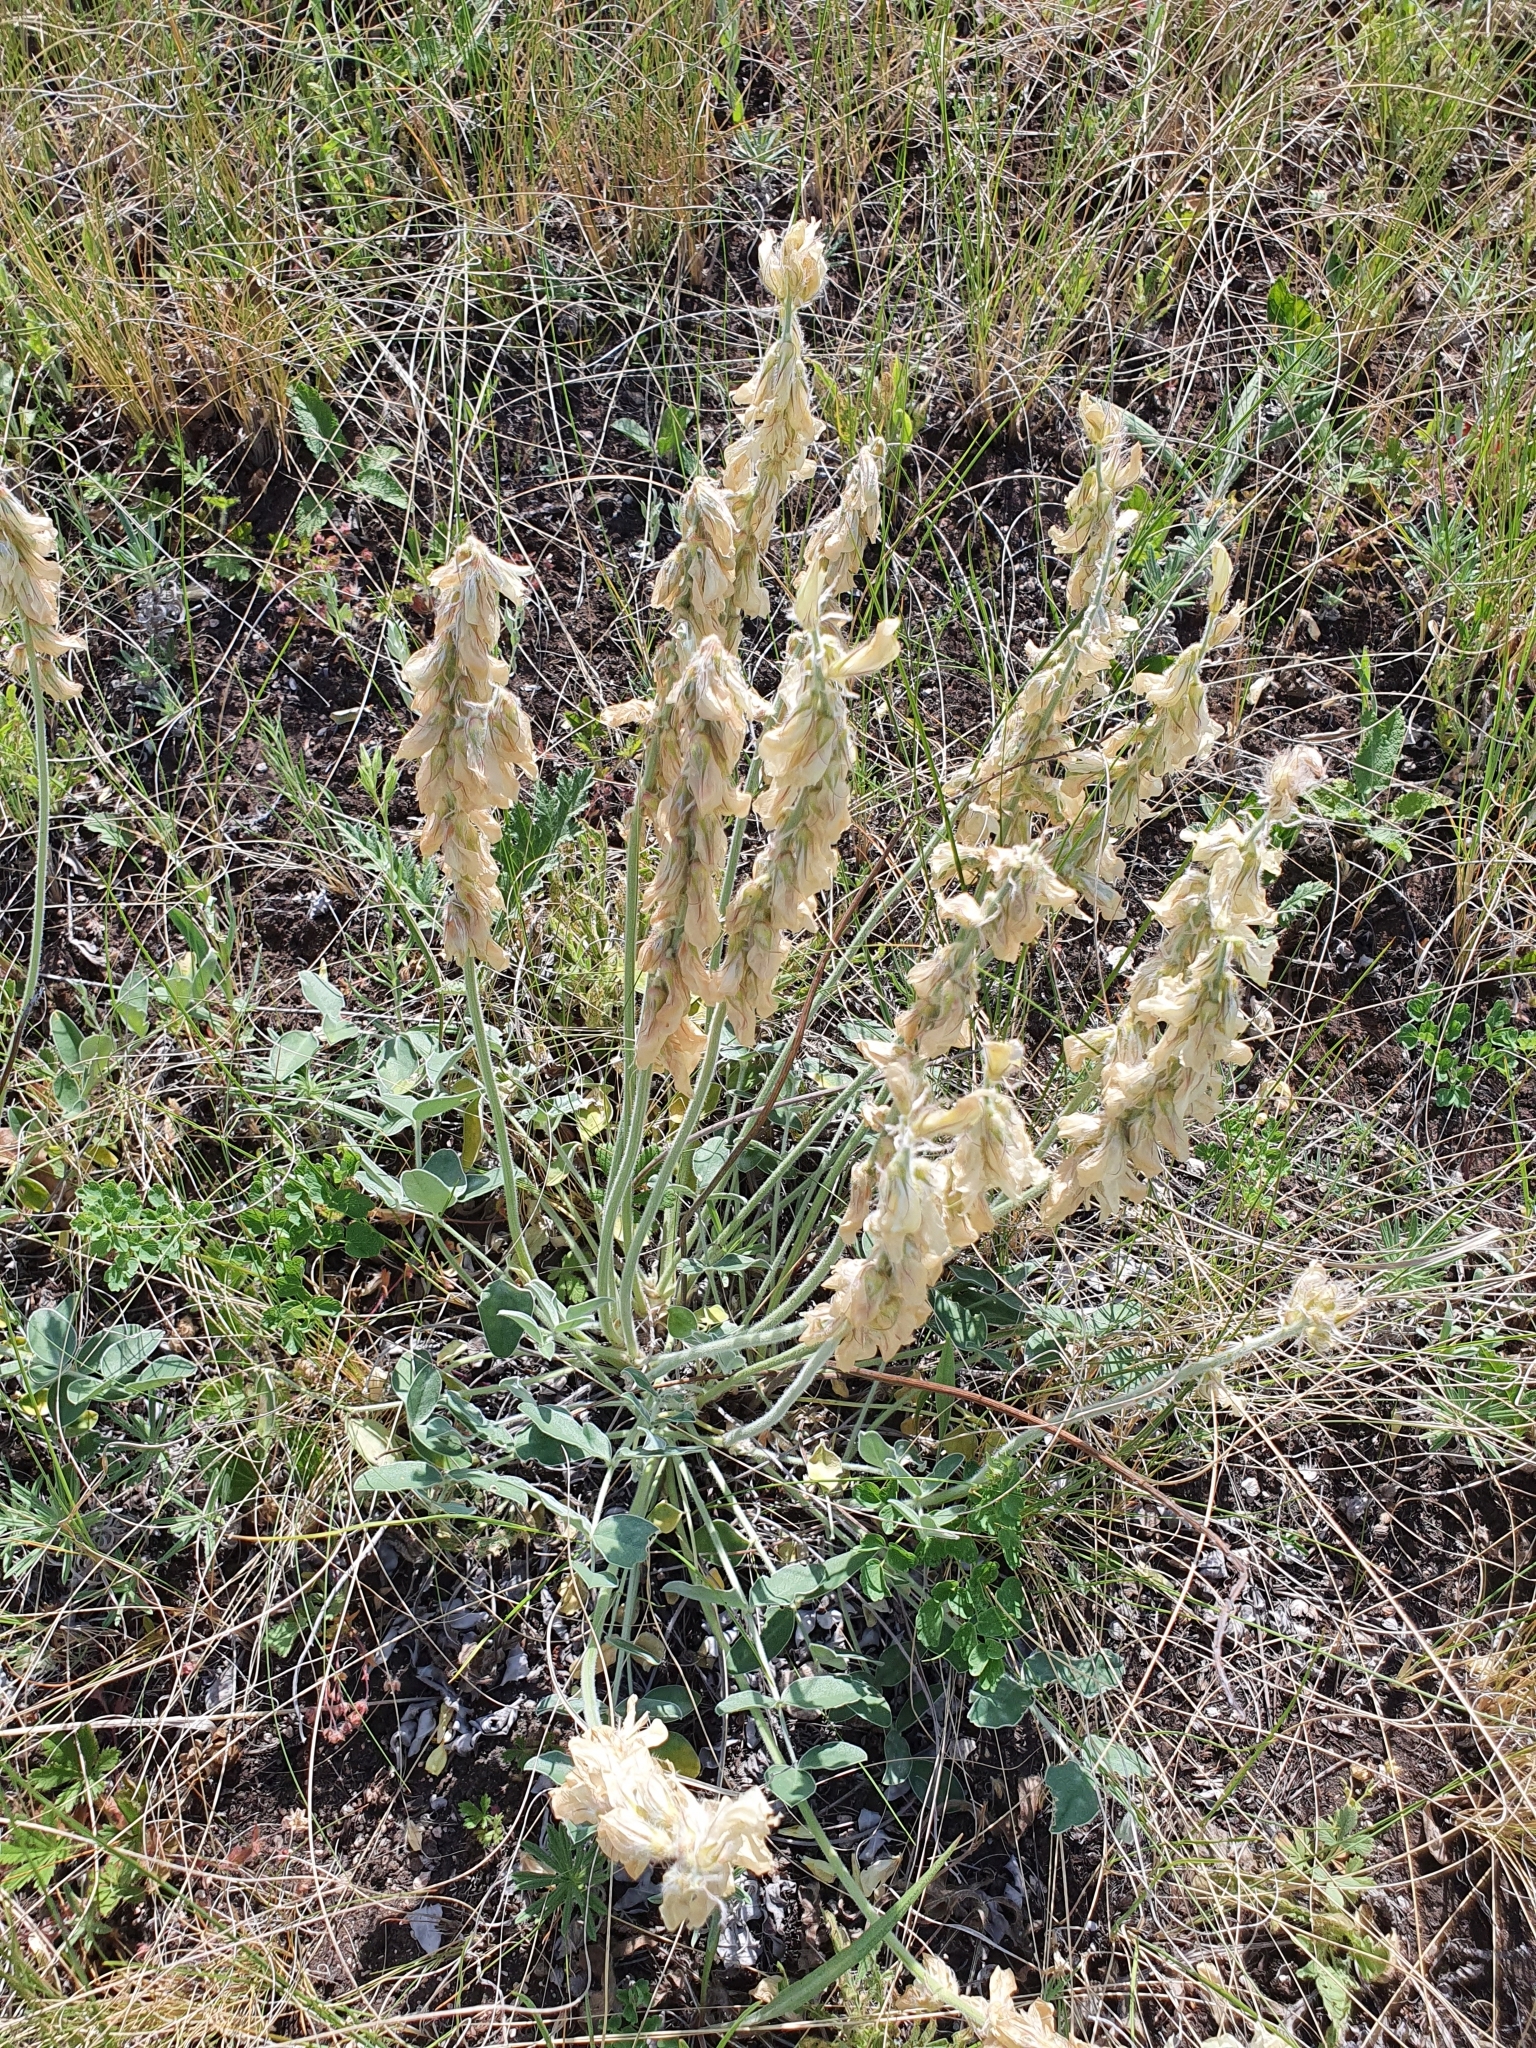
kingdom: Plantae
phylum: Tracheophyta
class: Magnoliopsida
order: Fabales
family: Fabaceae
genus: Hedysarum
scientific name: Hedysarum grandiflorum
